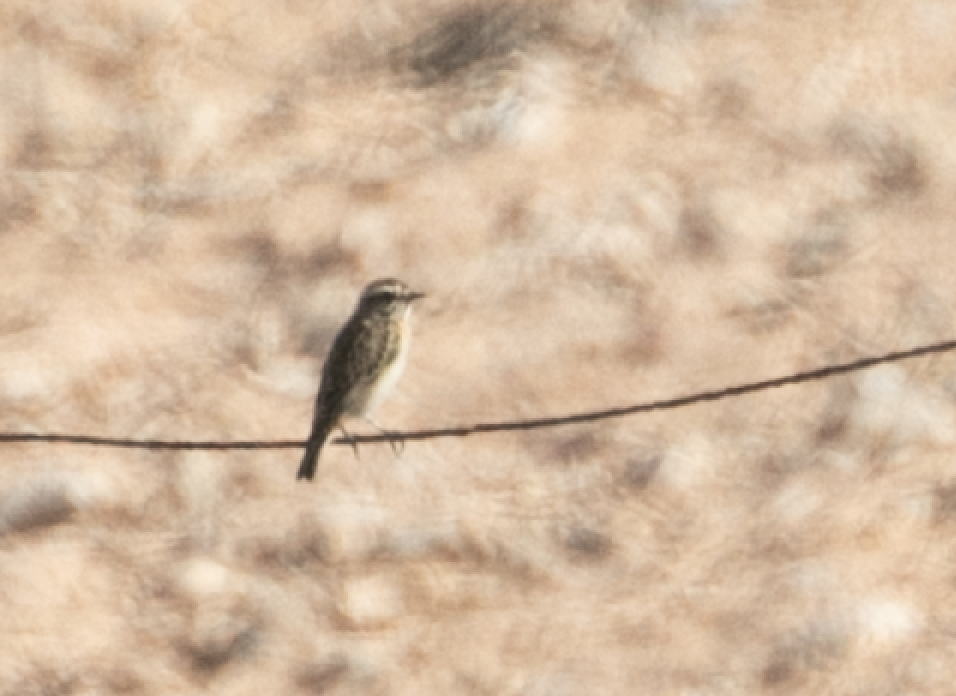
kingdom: Animalia
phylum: Chordata
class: Aves
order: Passeriformes
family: Muscicapidae
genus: Saxicola
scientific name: Saxicola rubetra
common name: Whinchat
